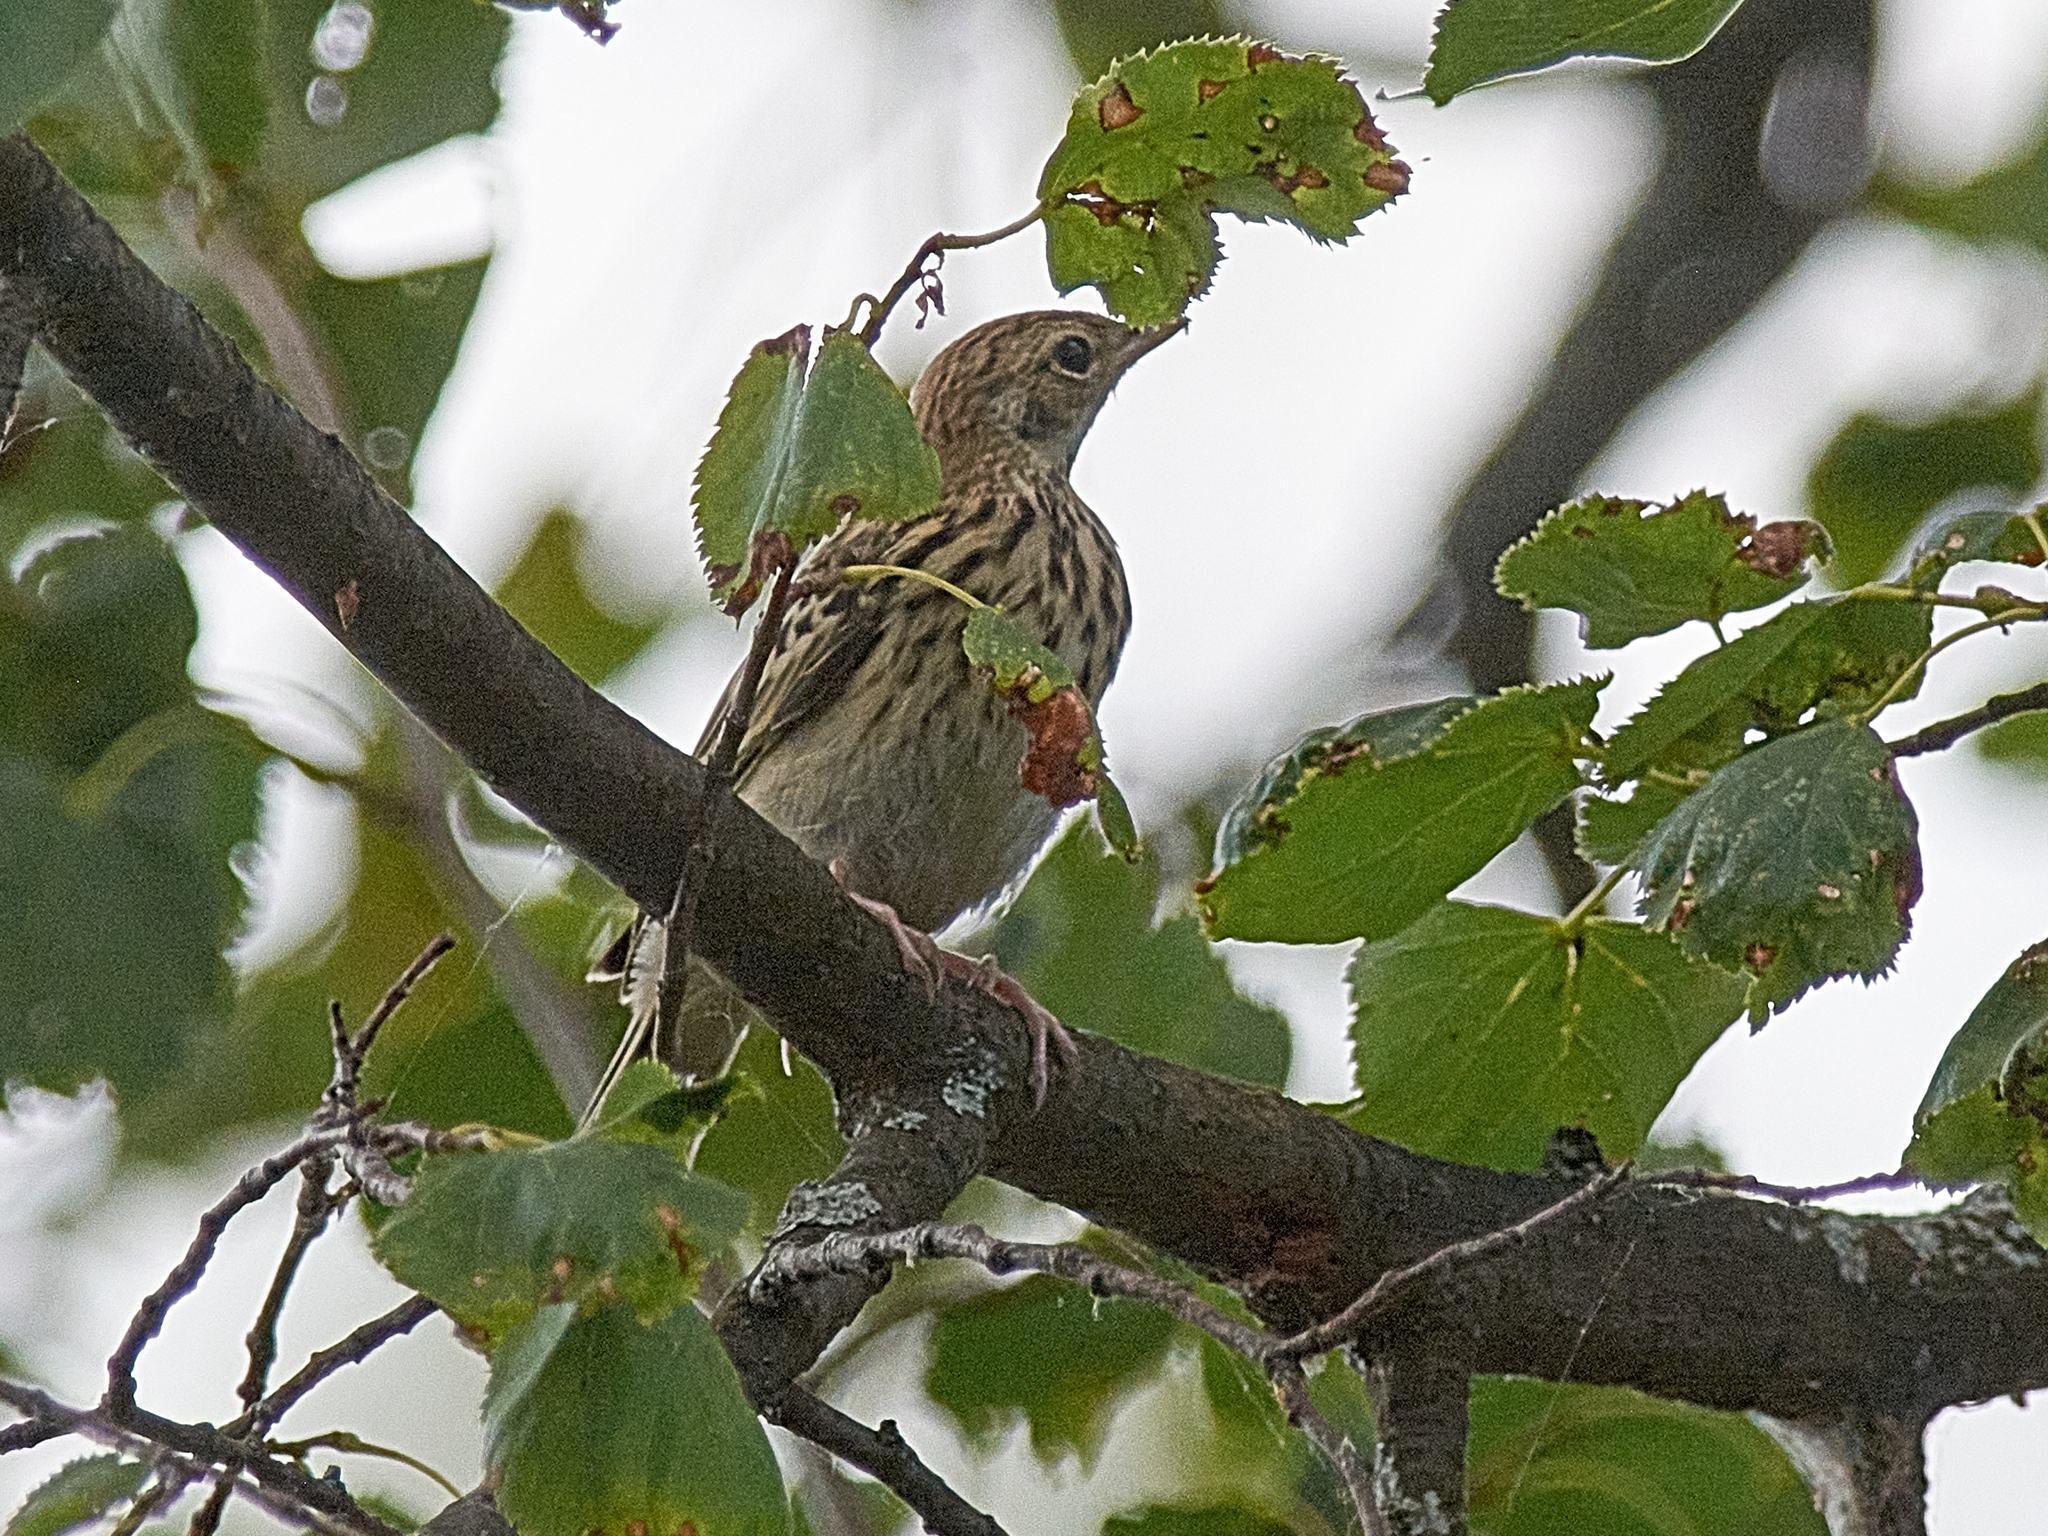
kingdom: Animalia
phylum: Chordata
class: Aves
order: Passeriformes
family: Motacillidae
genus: Anthus
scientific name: Anthus trivialis
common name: Tree pipit
